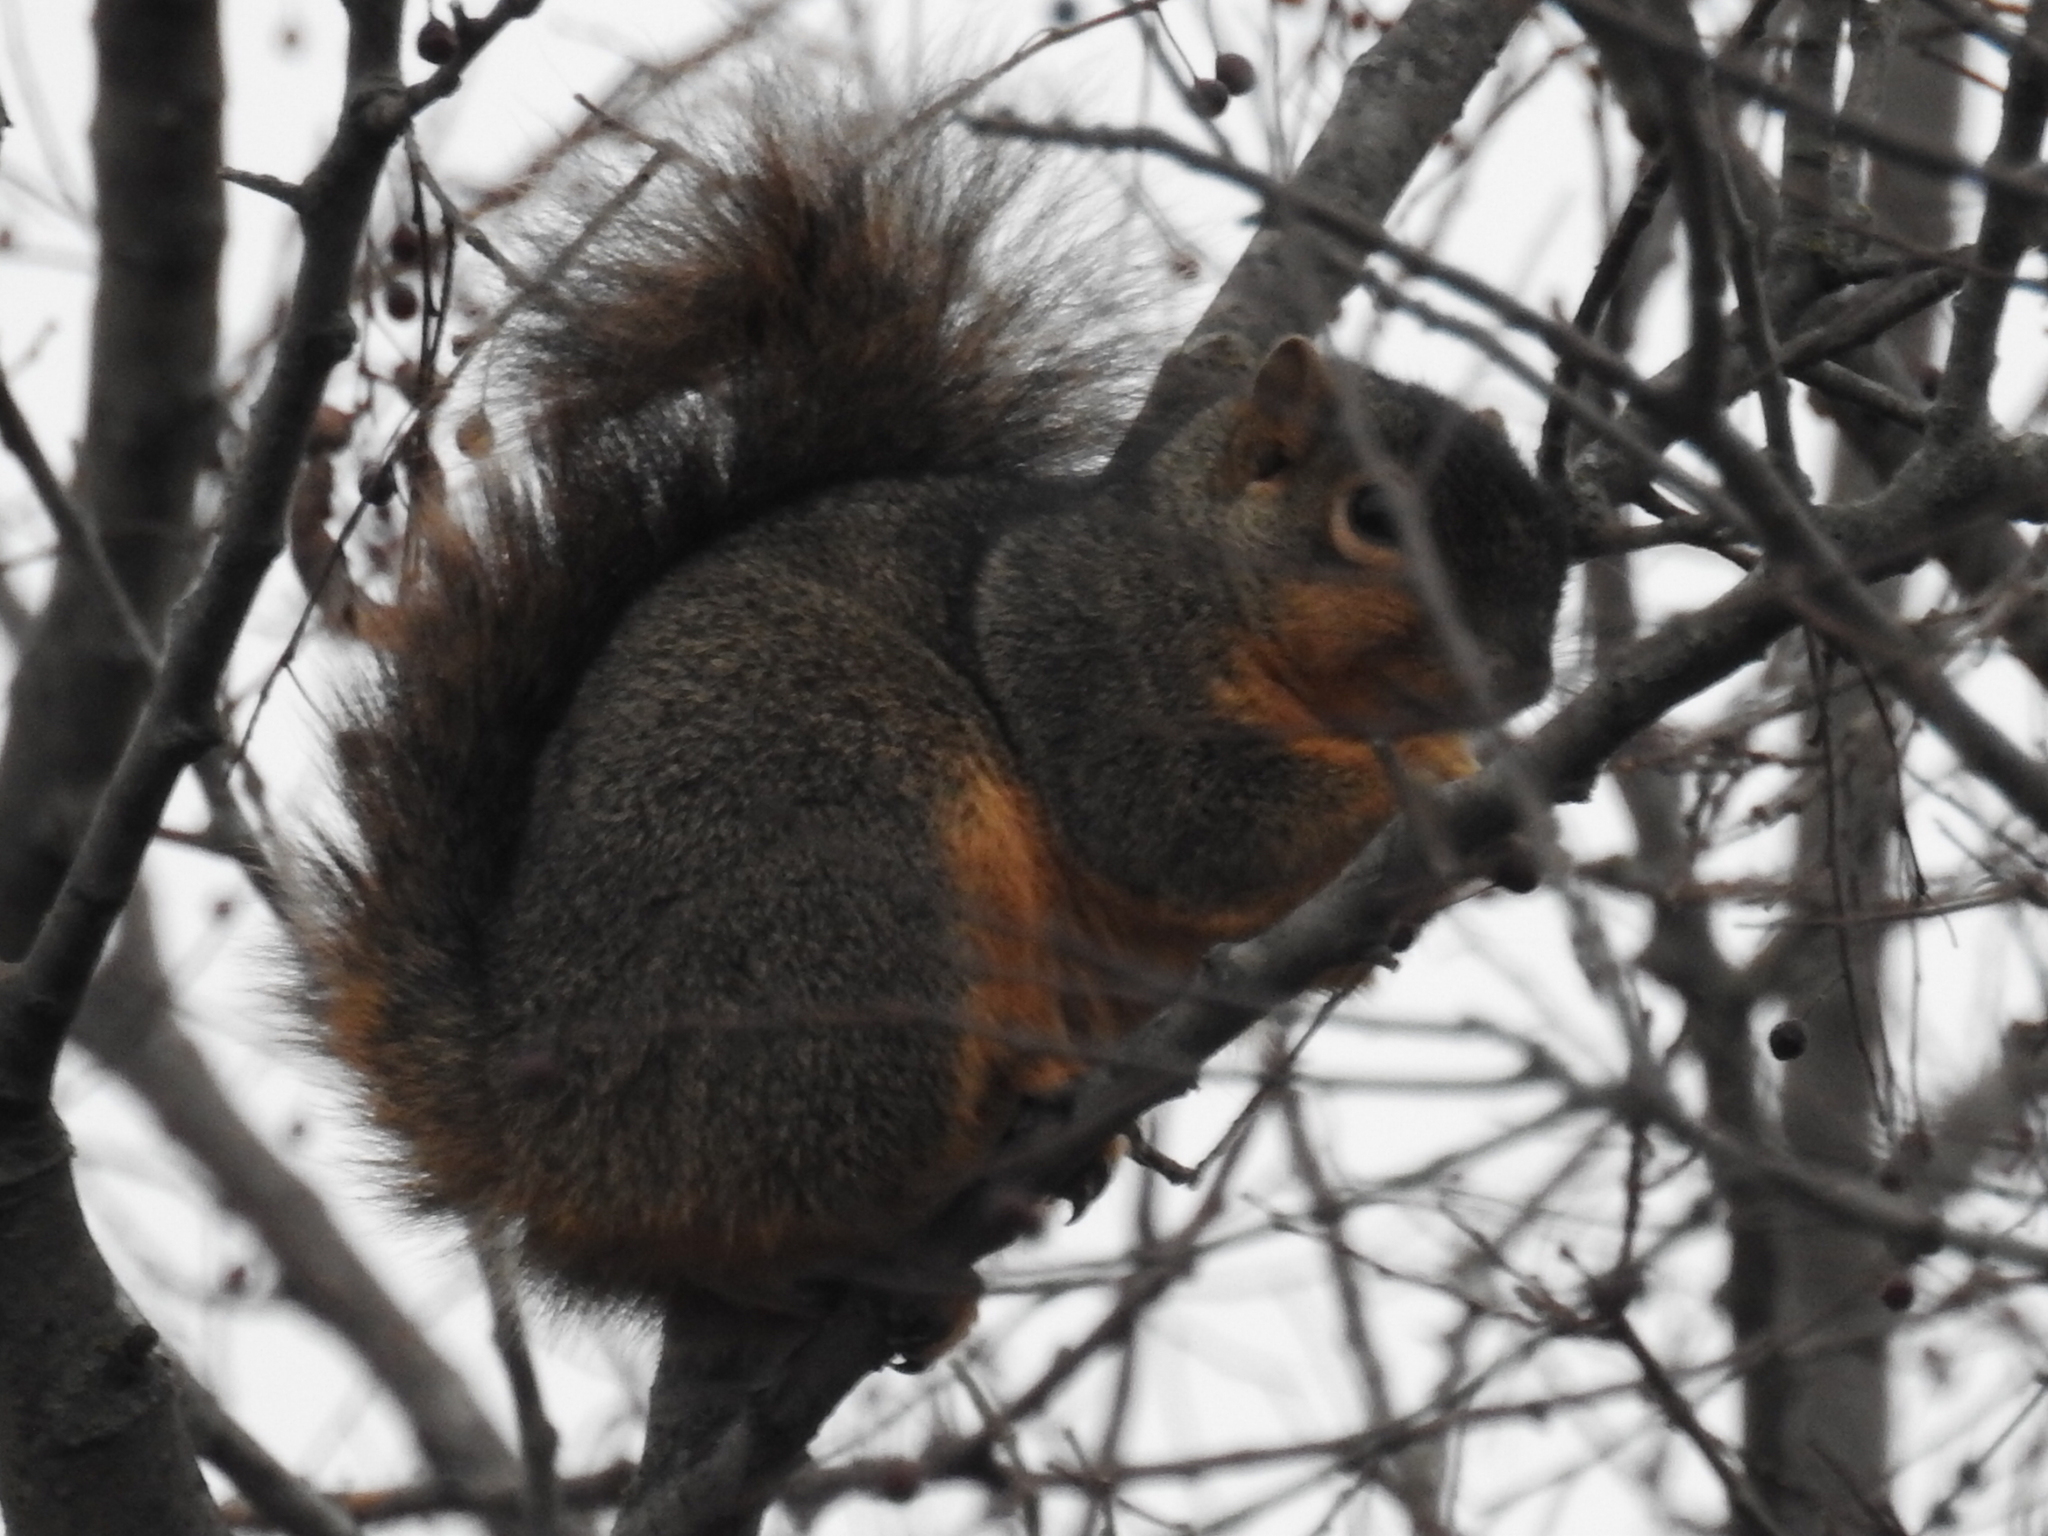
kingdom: Animalia
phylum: Chordata
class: Mammalia
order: Rodentia
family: Sciuridae
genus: Sciurus
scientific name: Sciurus niger
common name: Fox squirrel
